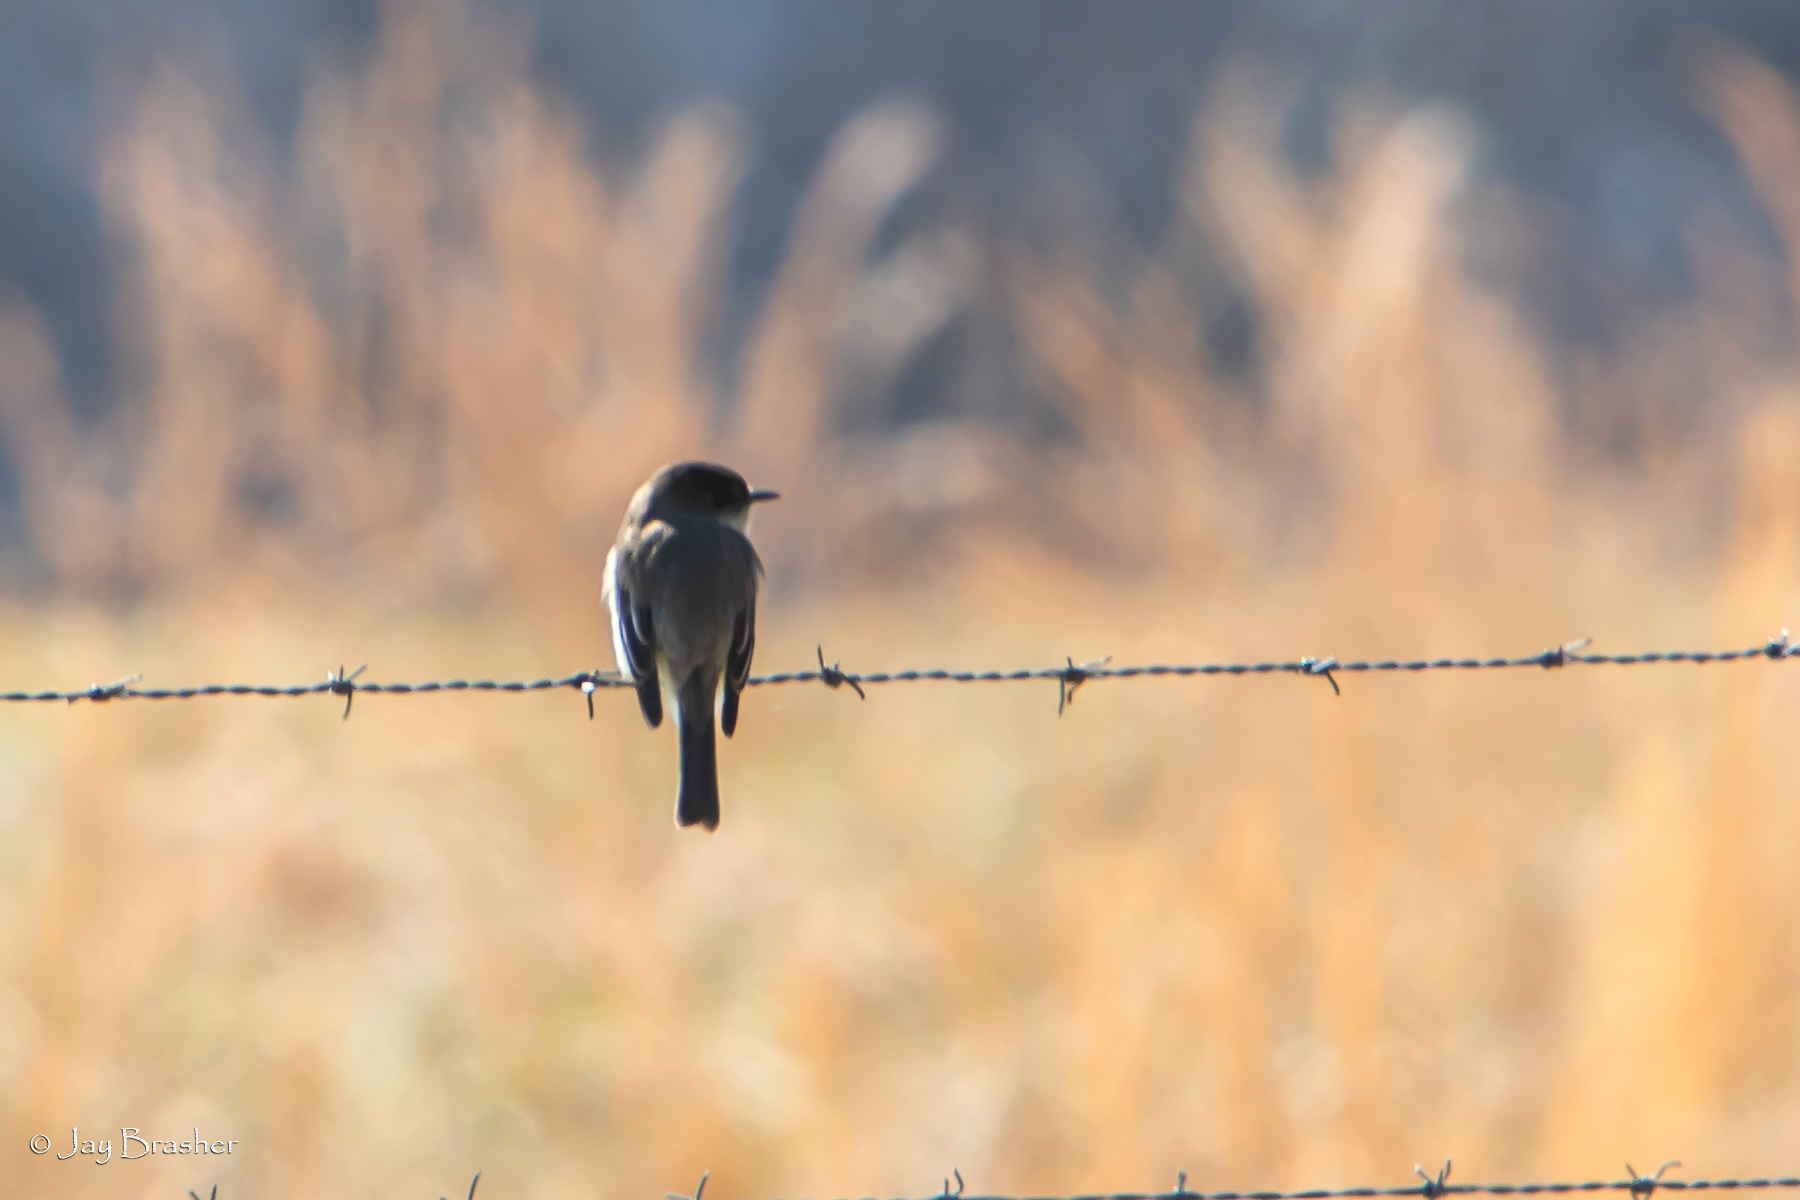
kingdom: Animalia
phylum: Chordata
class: Aves
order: Passeriformes
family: Tyrannidae
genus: Sayornis
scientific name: Sayornis phoebe
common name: Eastern phoebe
